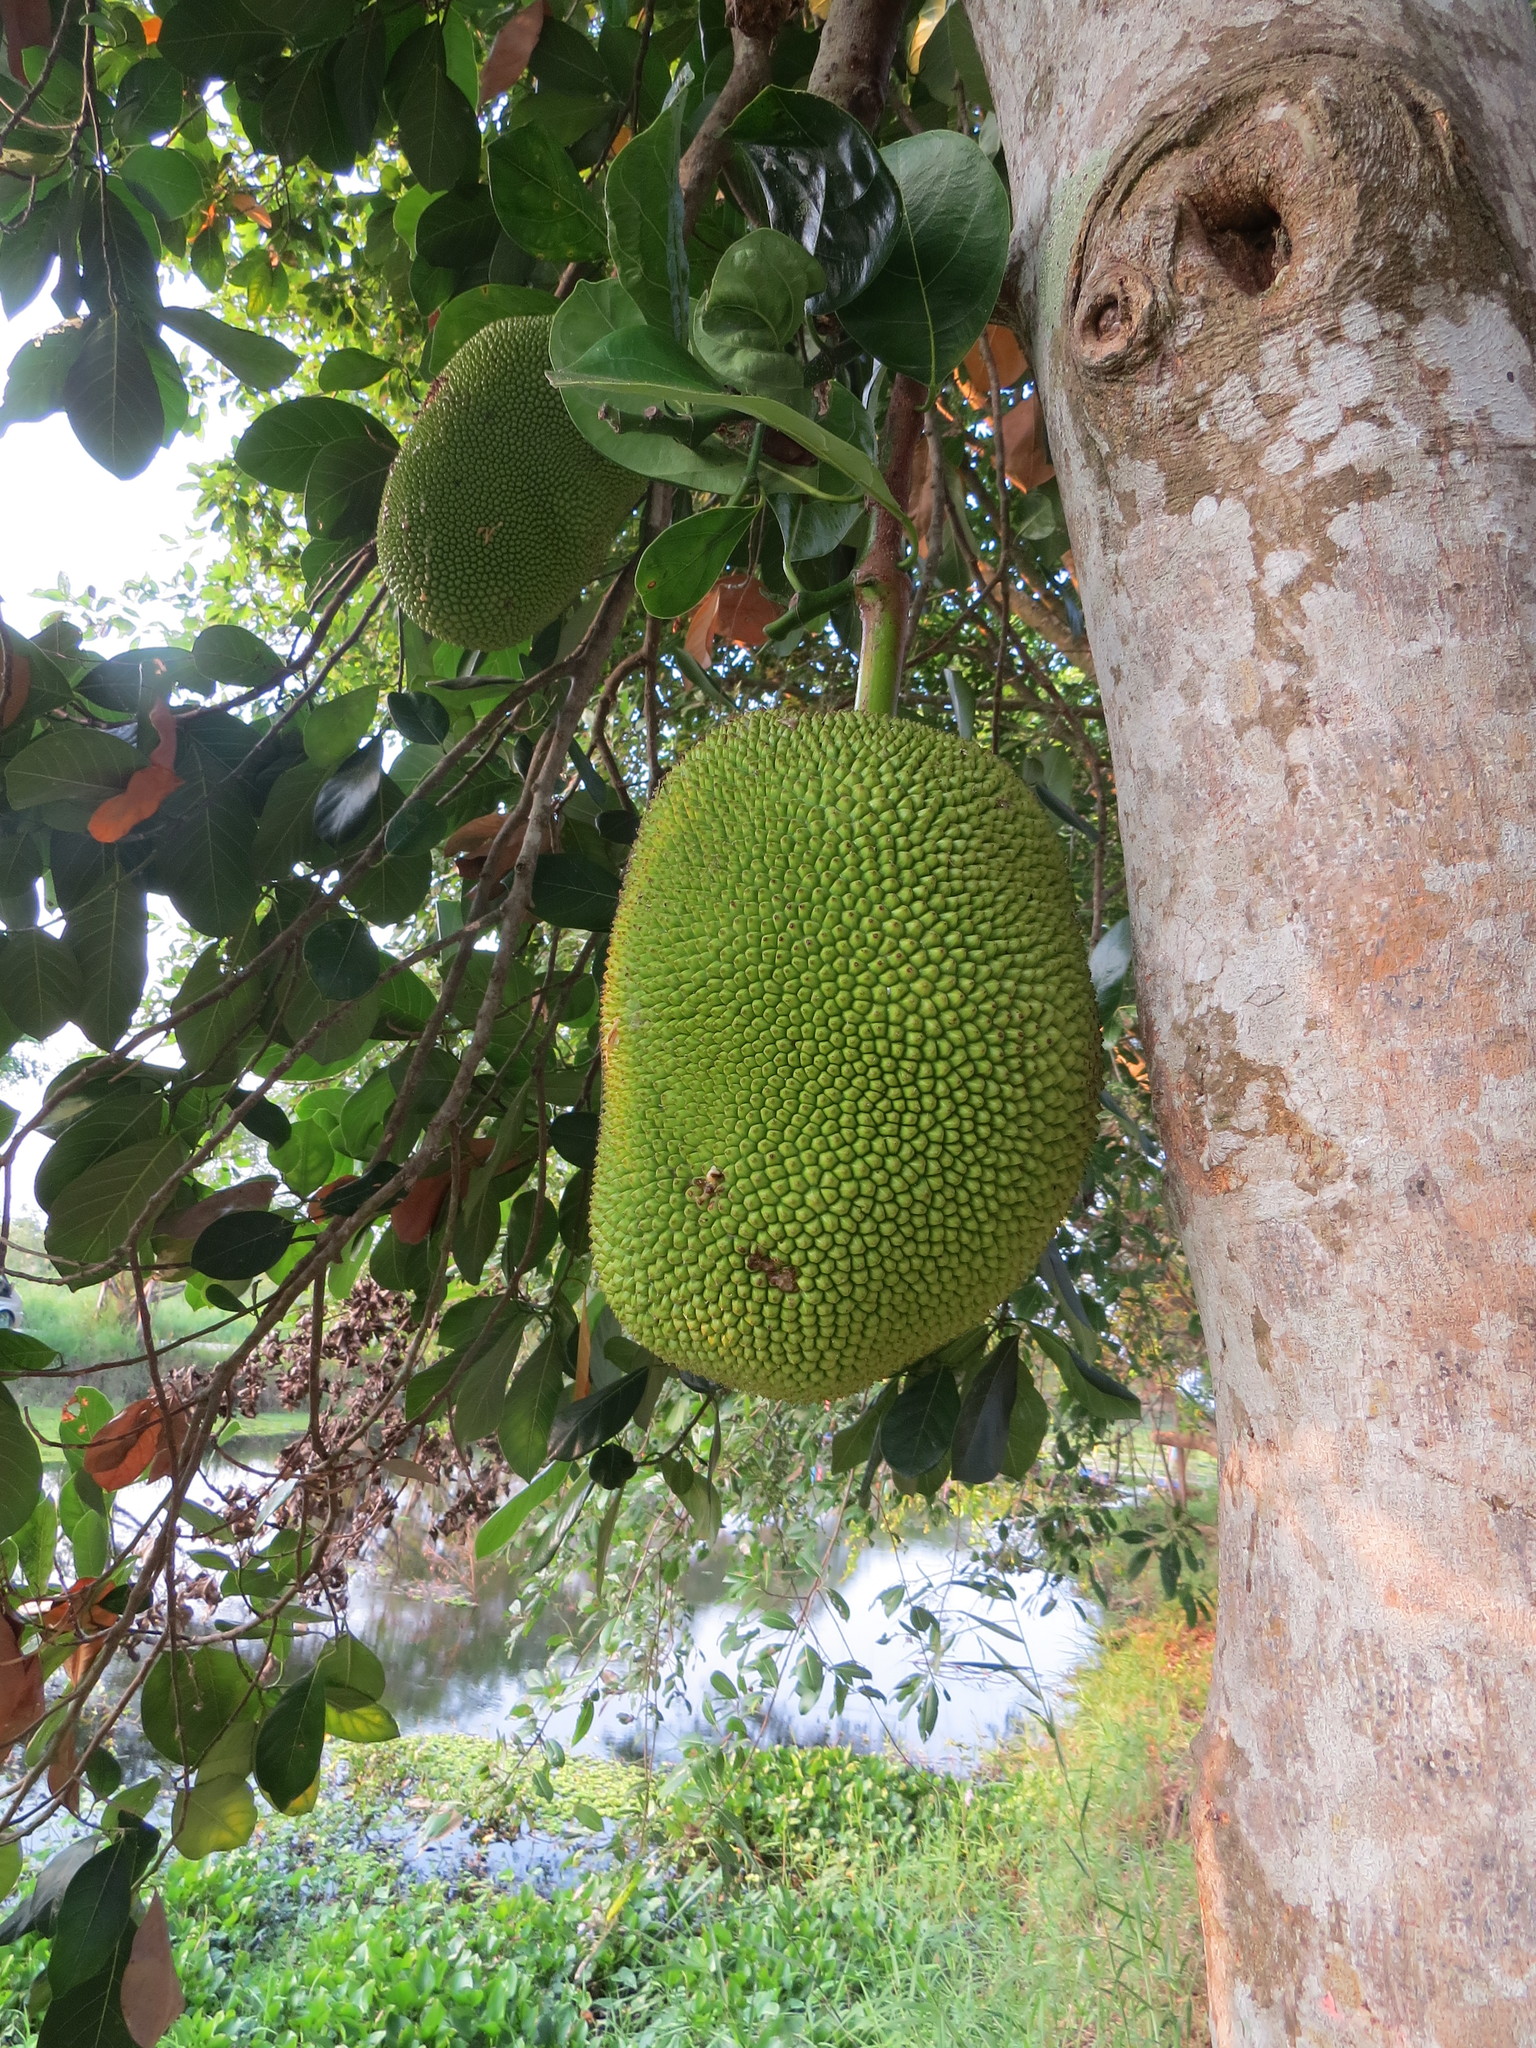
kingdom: Plantae
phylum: Tracheophyta
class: Magnoliopsida
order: Rosales
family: Moraceae
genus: Artocarpus
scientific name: Artocarpus heterophyllus
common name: Jackfruit
